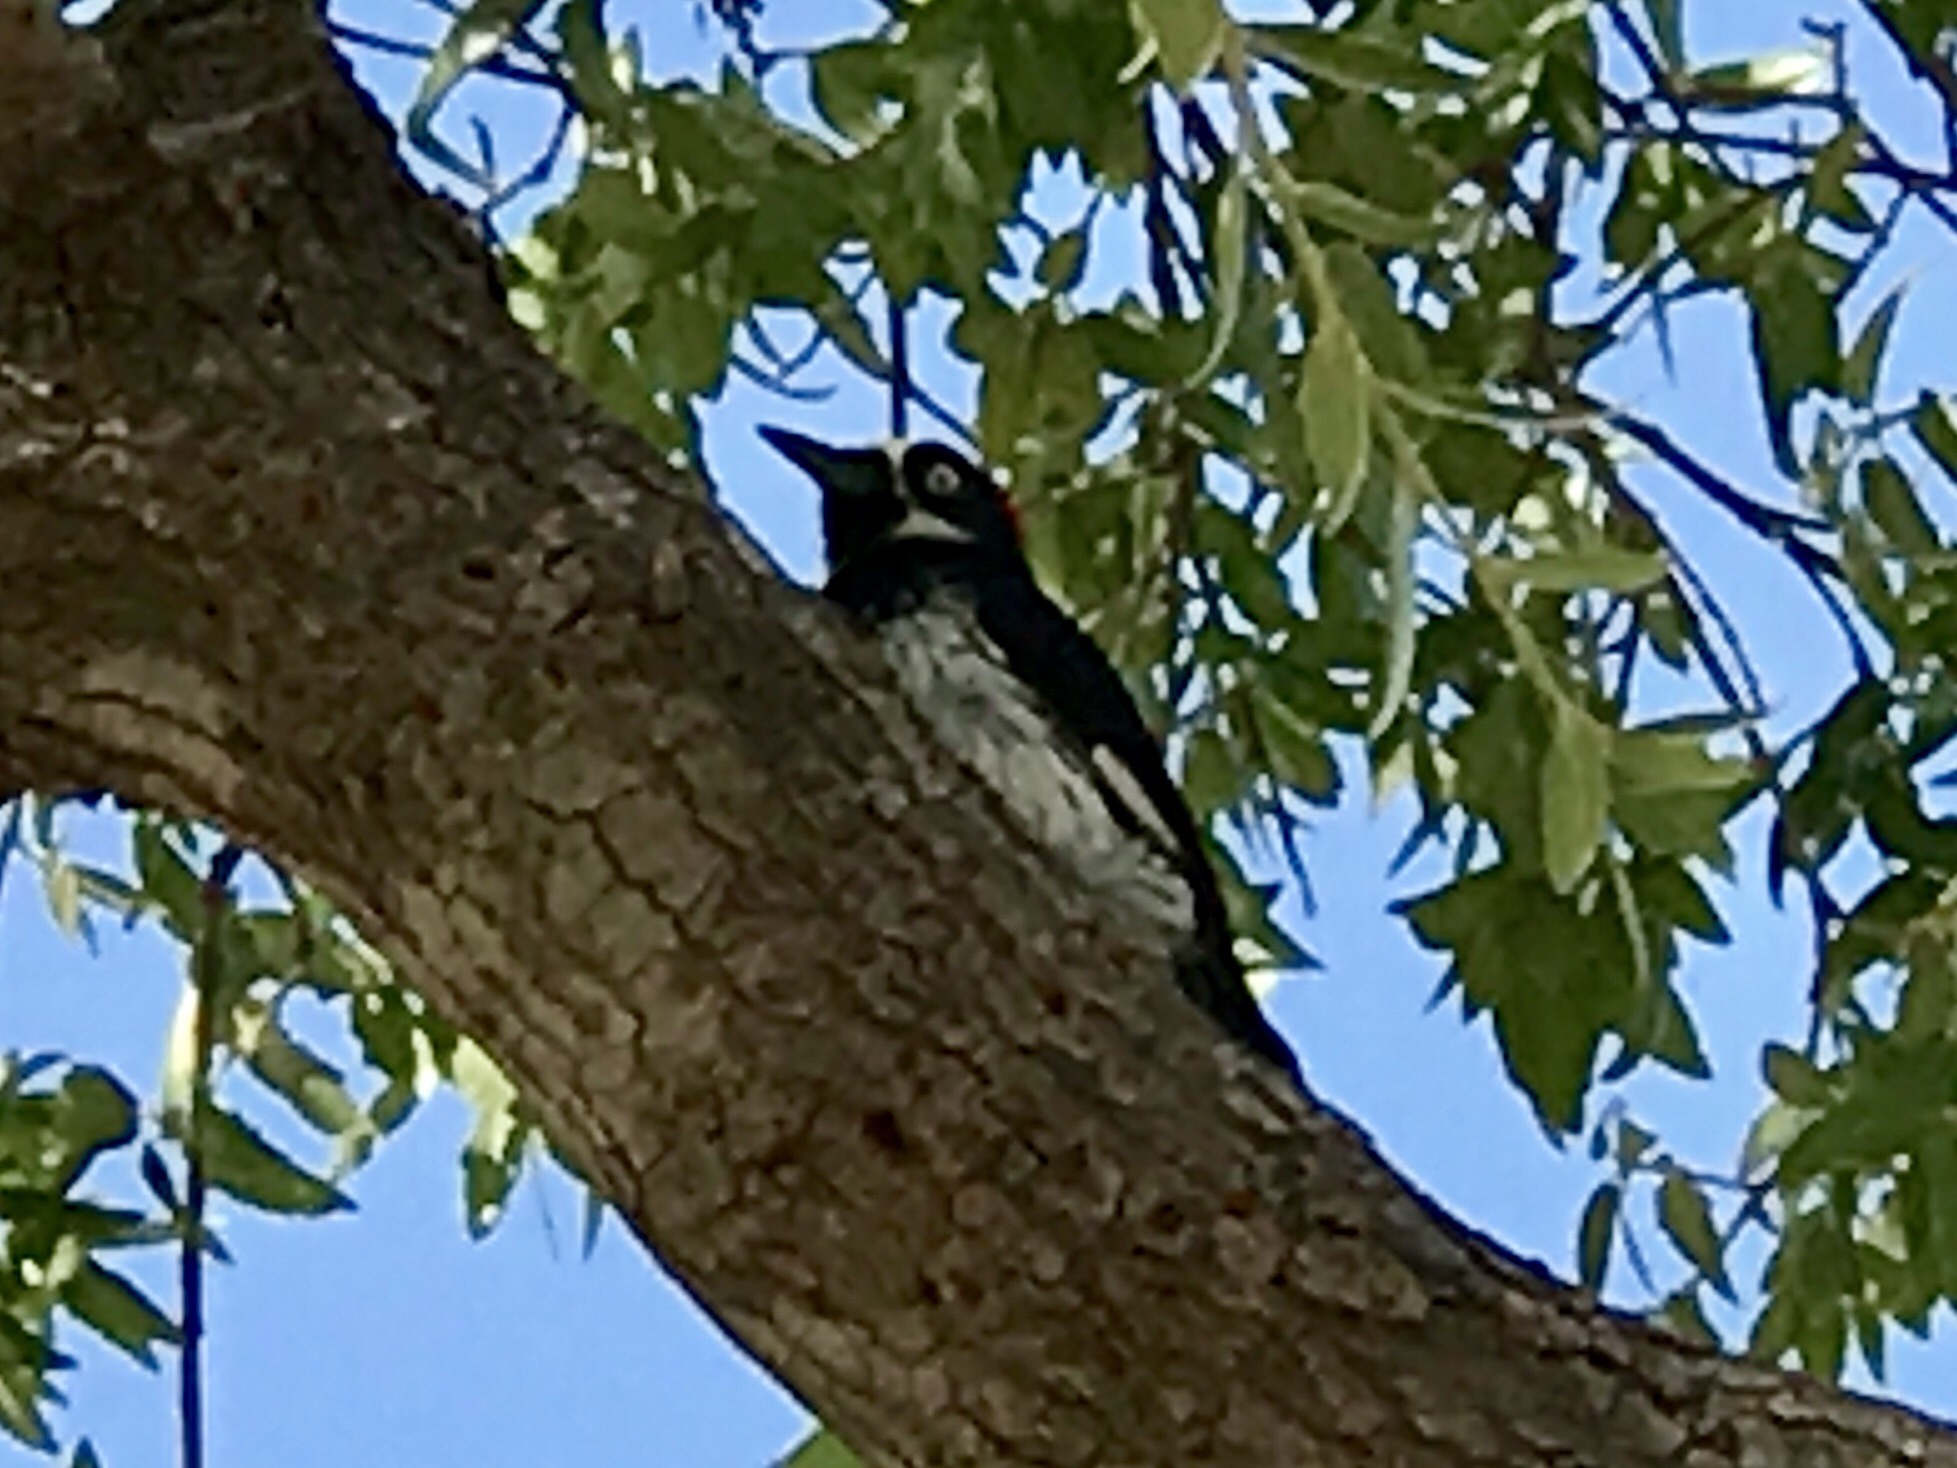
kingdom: Animalia
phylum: Chordata
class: Aves
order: Piciformes
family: Picidae
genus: Melanerpes
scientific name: Melanerpes formicivorus
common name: Acorn woodpecker
